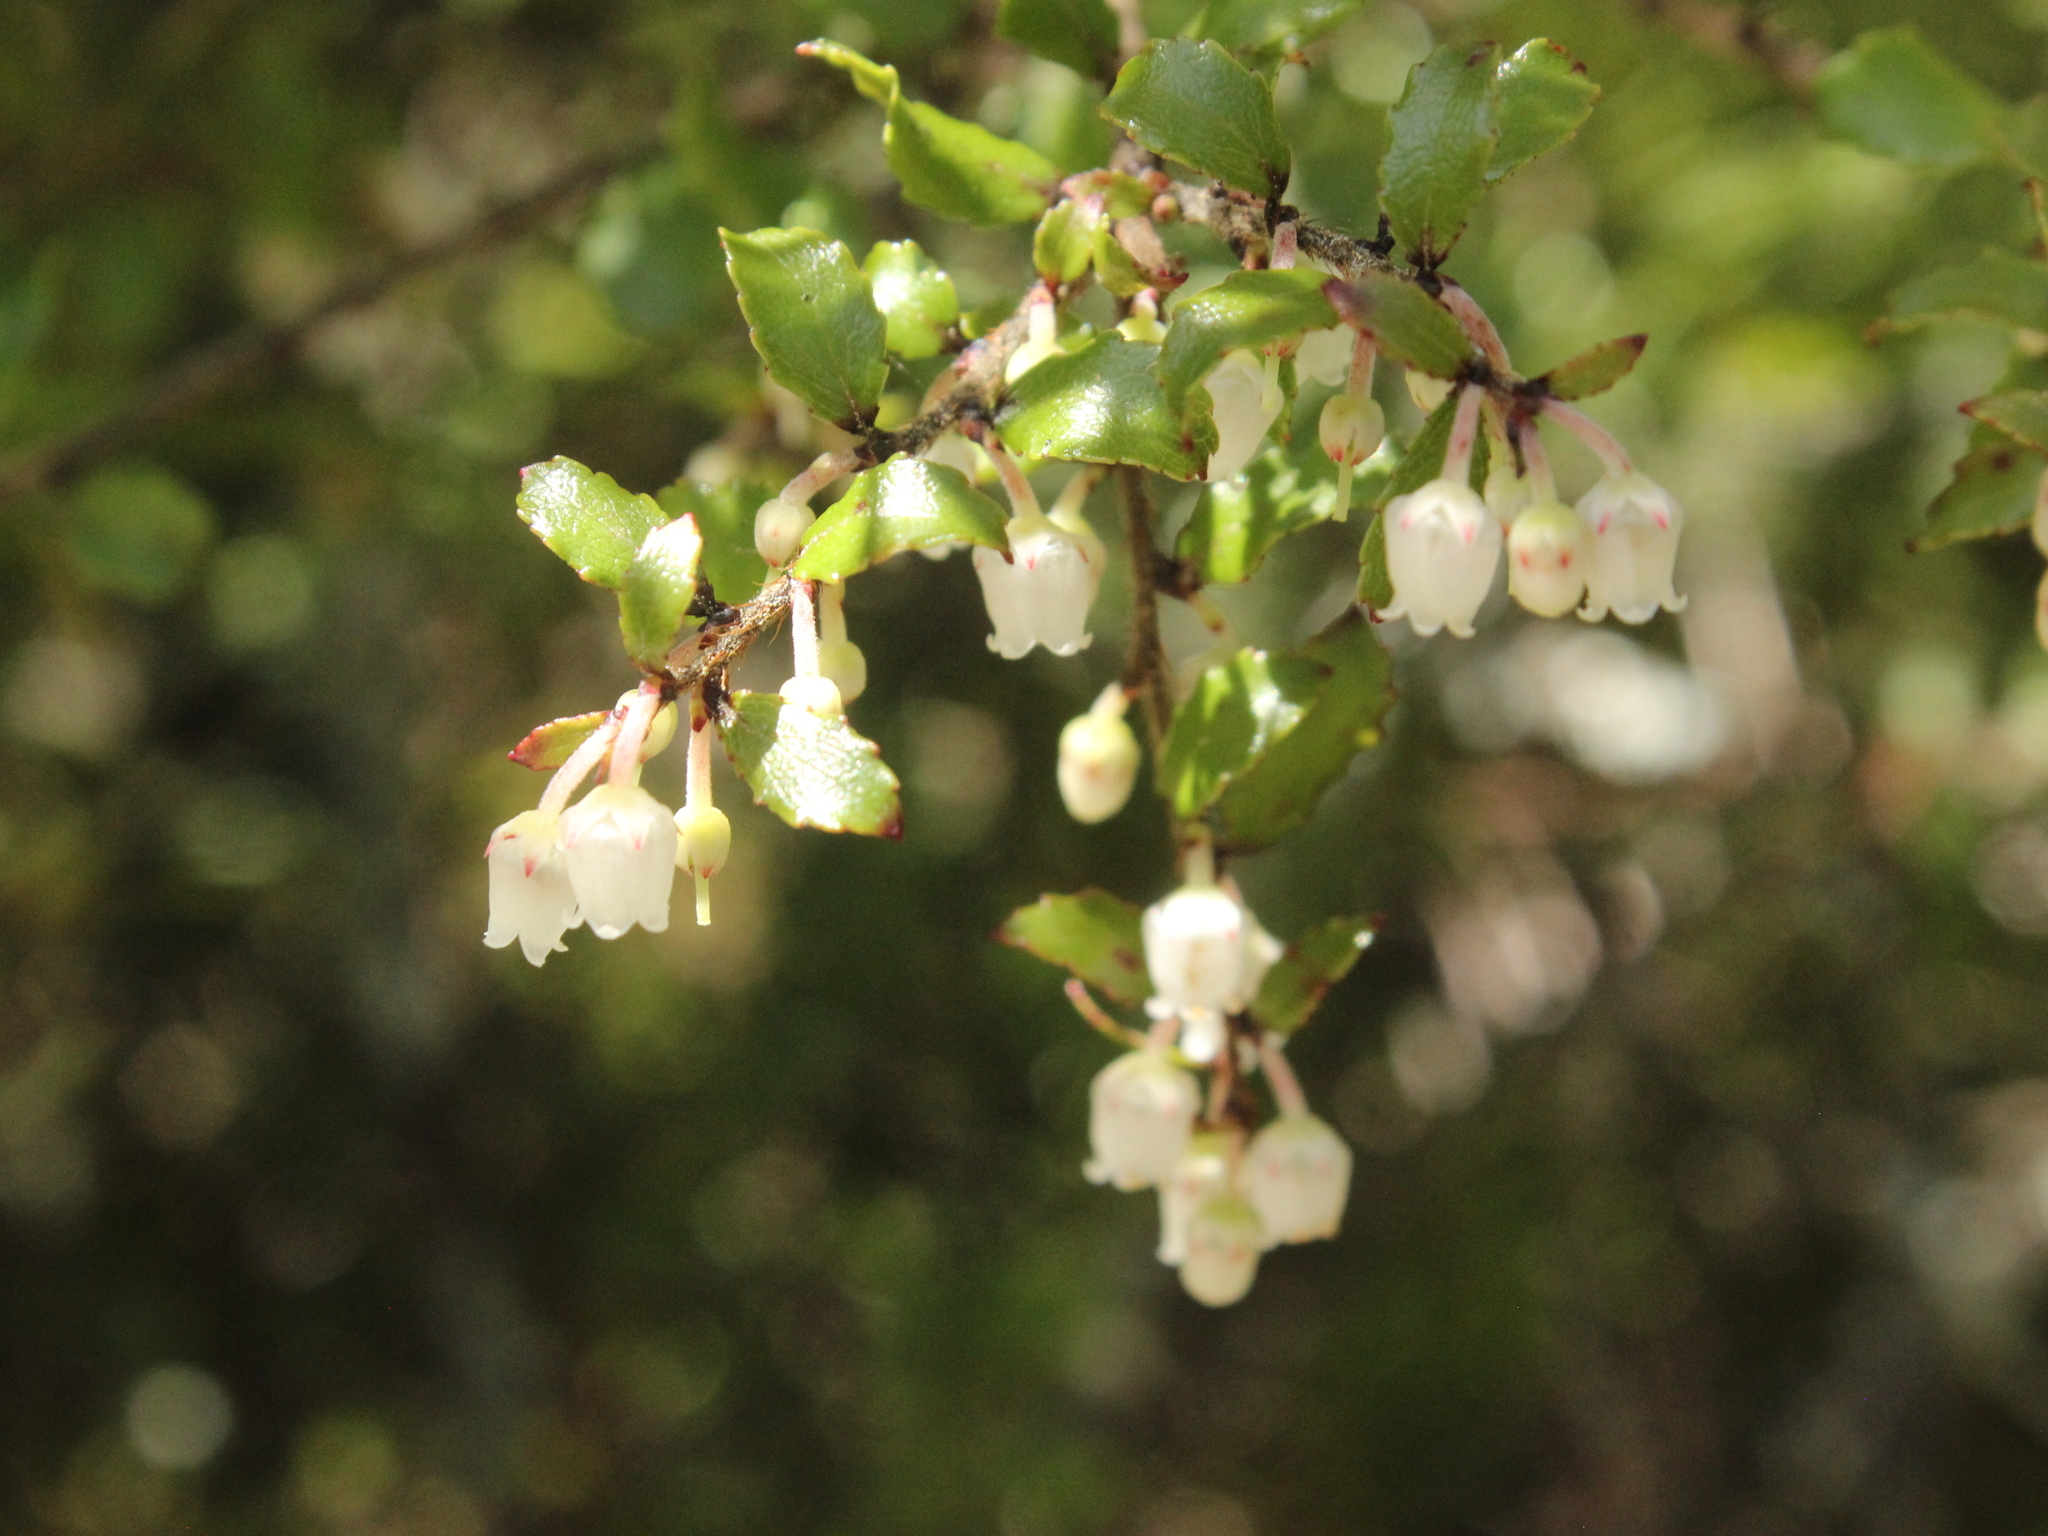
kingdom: Plantae
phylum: Tracheophyta
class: Magnoliopsida
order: Ericales
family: Ericaceae
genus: Gaultheria
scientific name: Gaultheria antipoda
